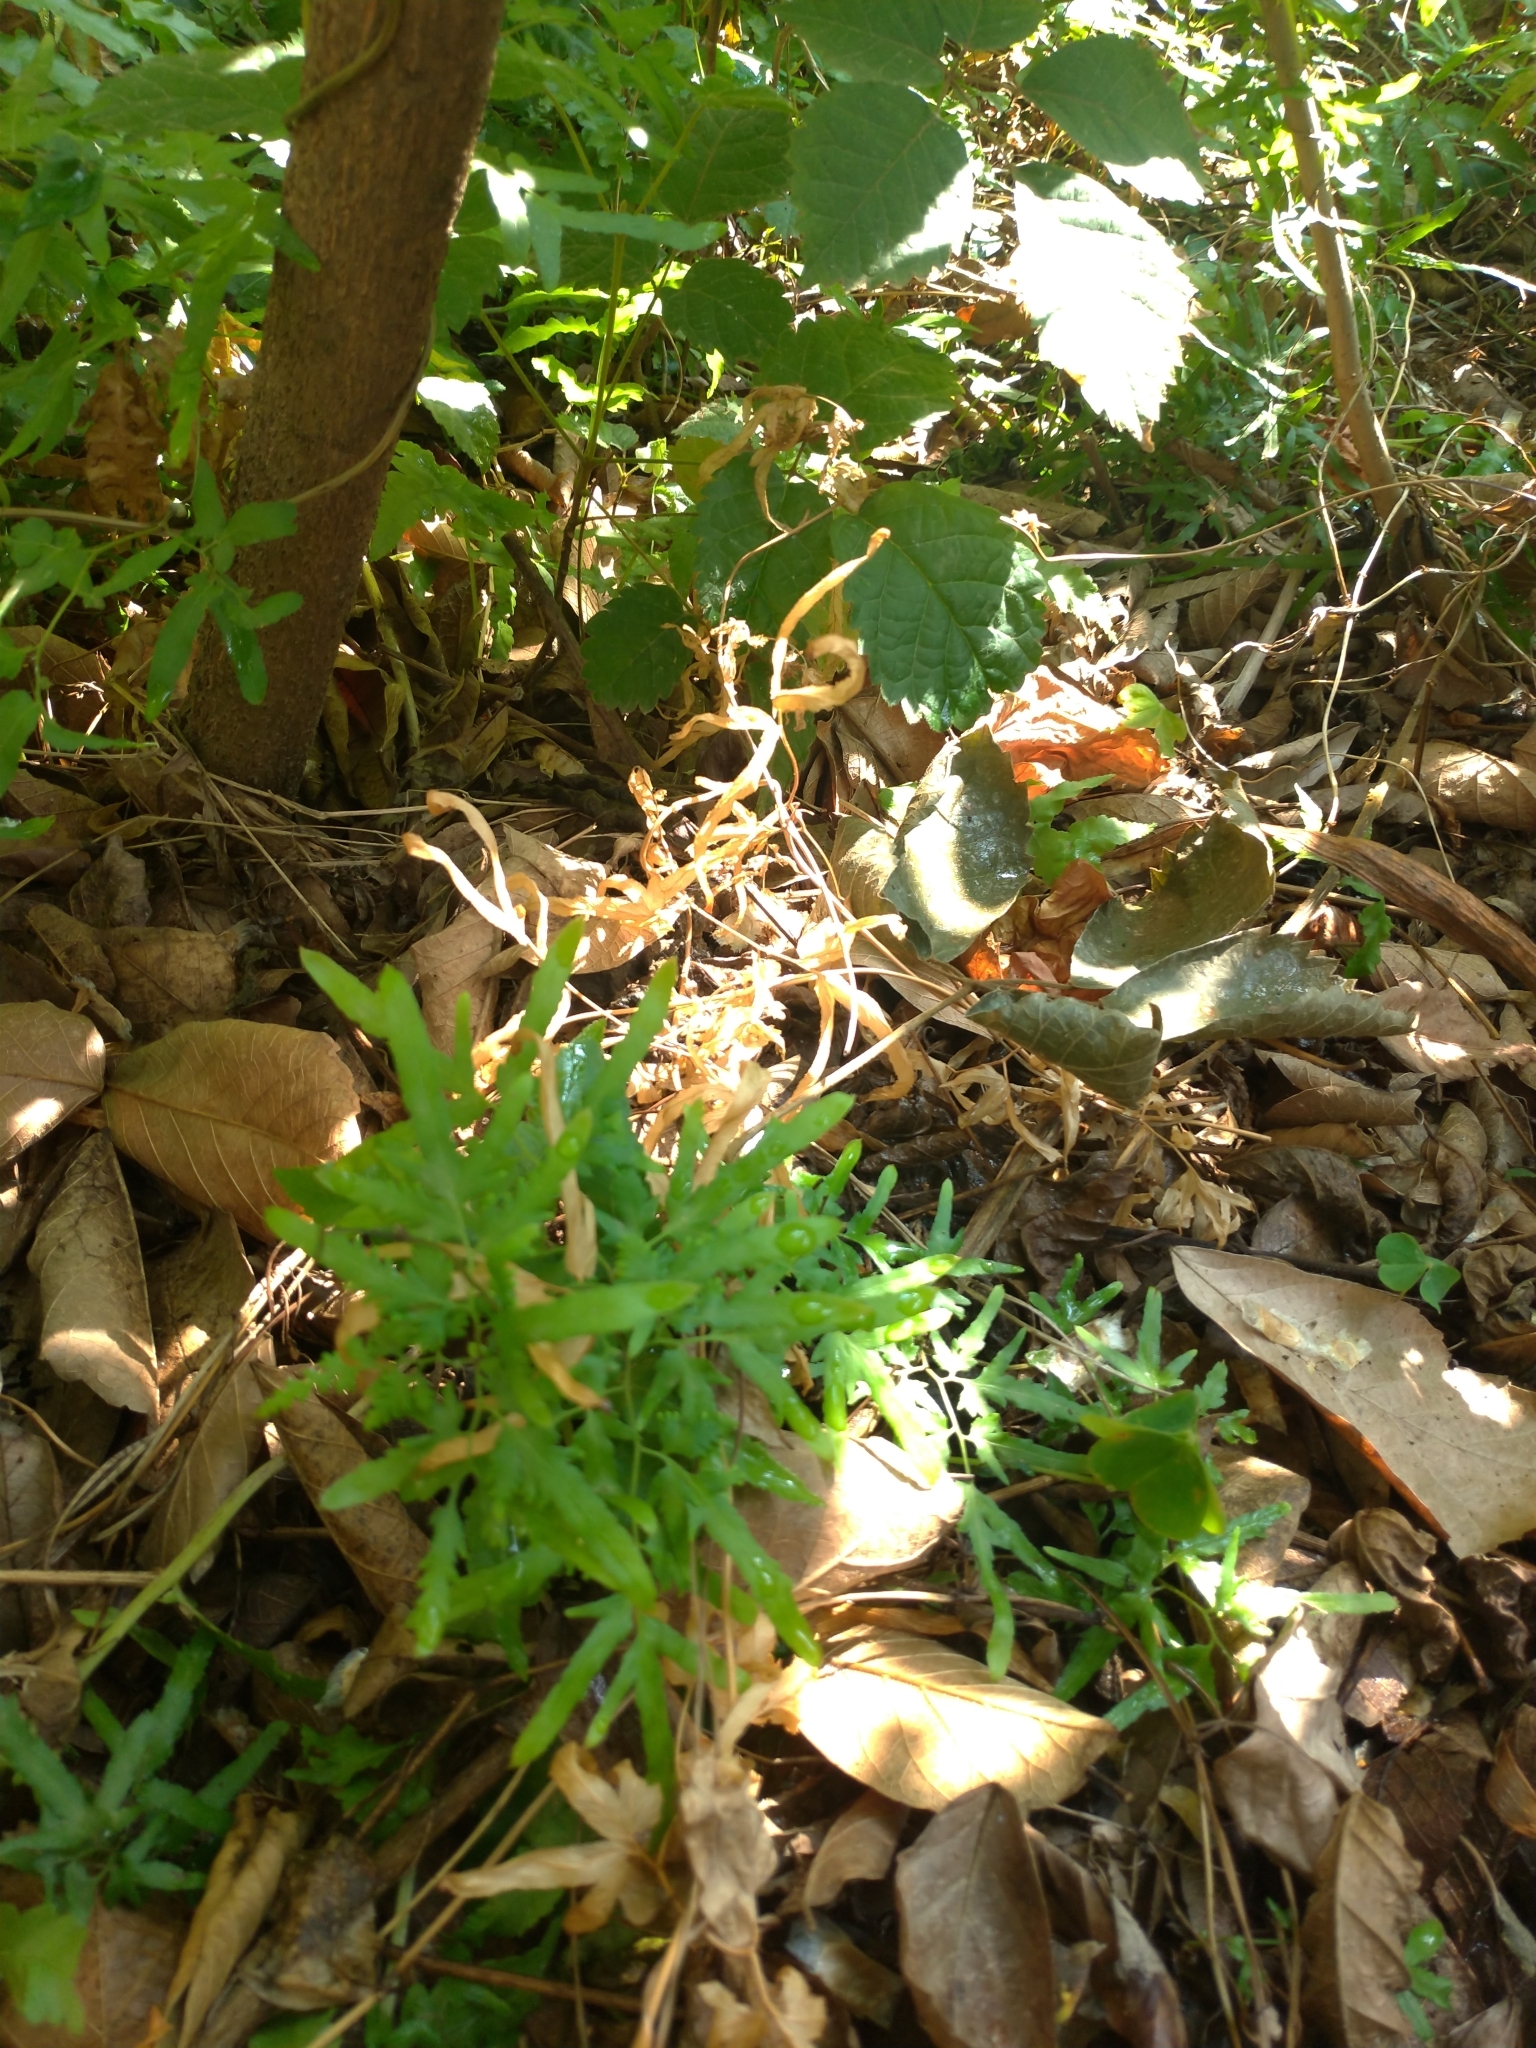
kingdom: Plantae
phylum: Tracheophyta
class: Polypodiopsida
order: Schizaeales
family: Lygodiaceae
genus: Lygodium
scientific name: Lygodium japonicum
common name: Japanese climbing fern
